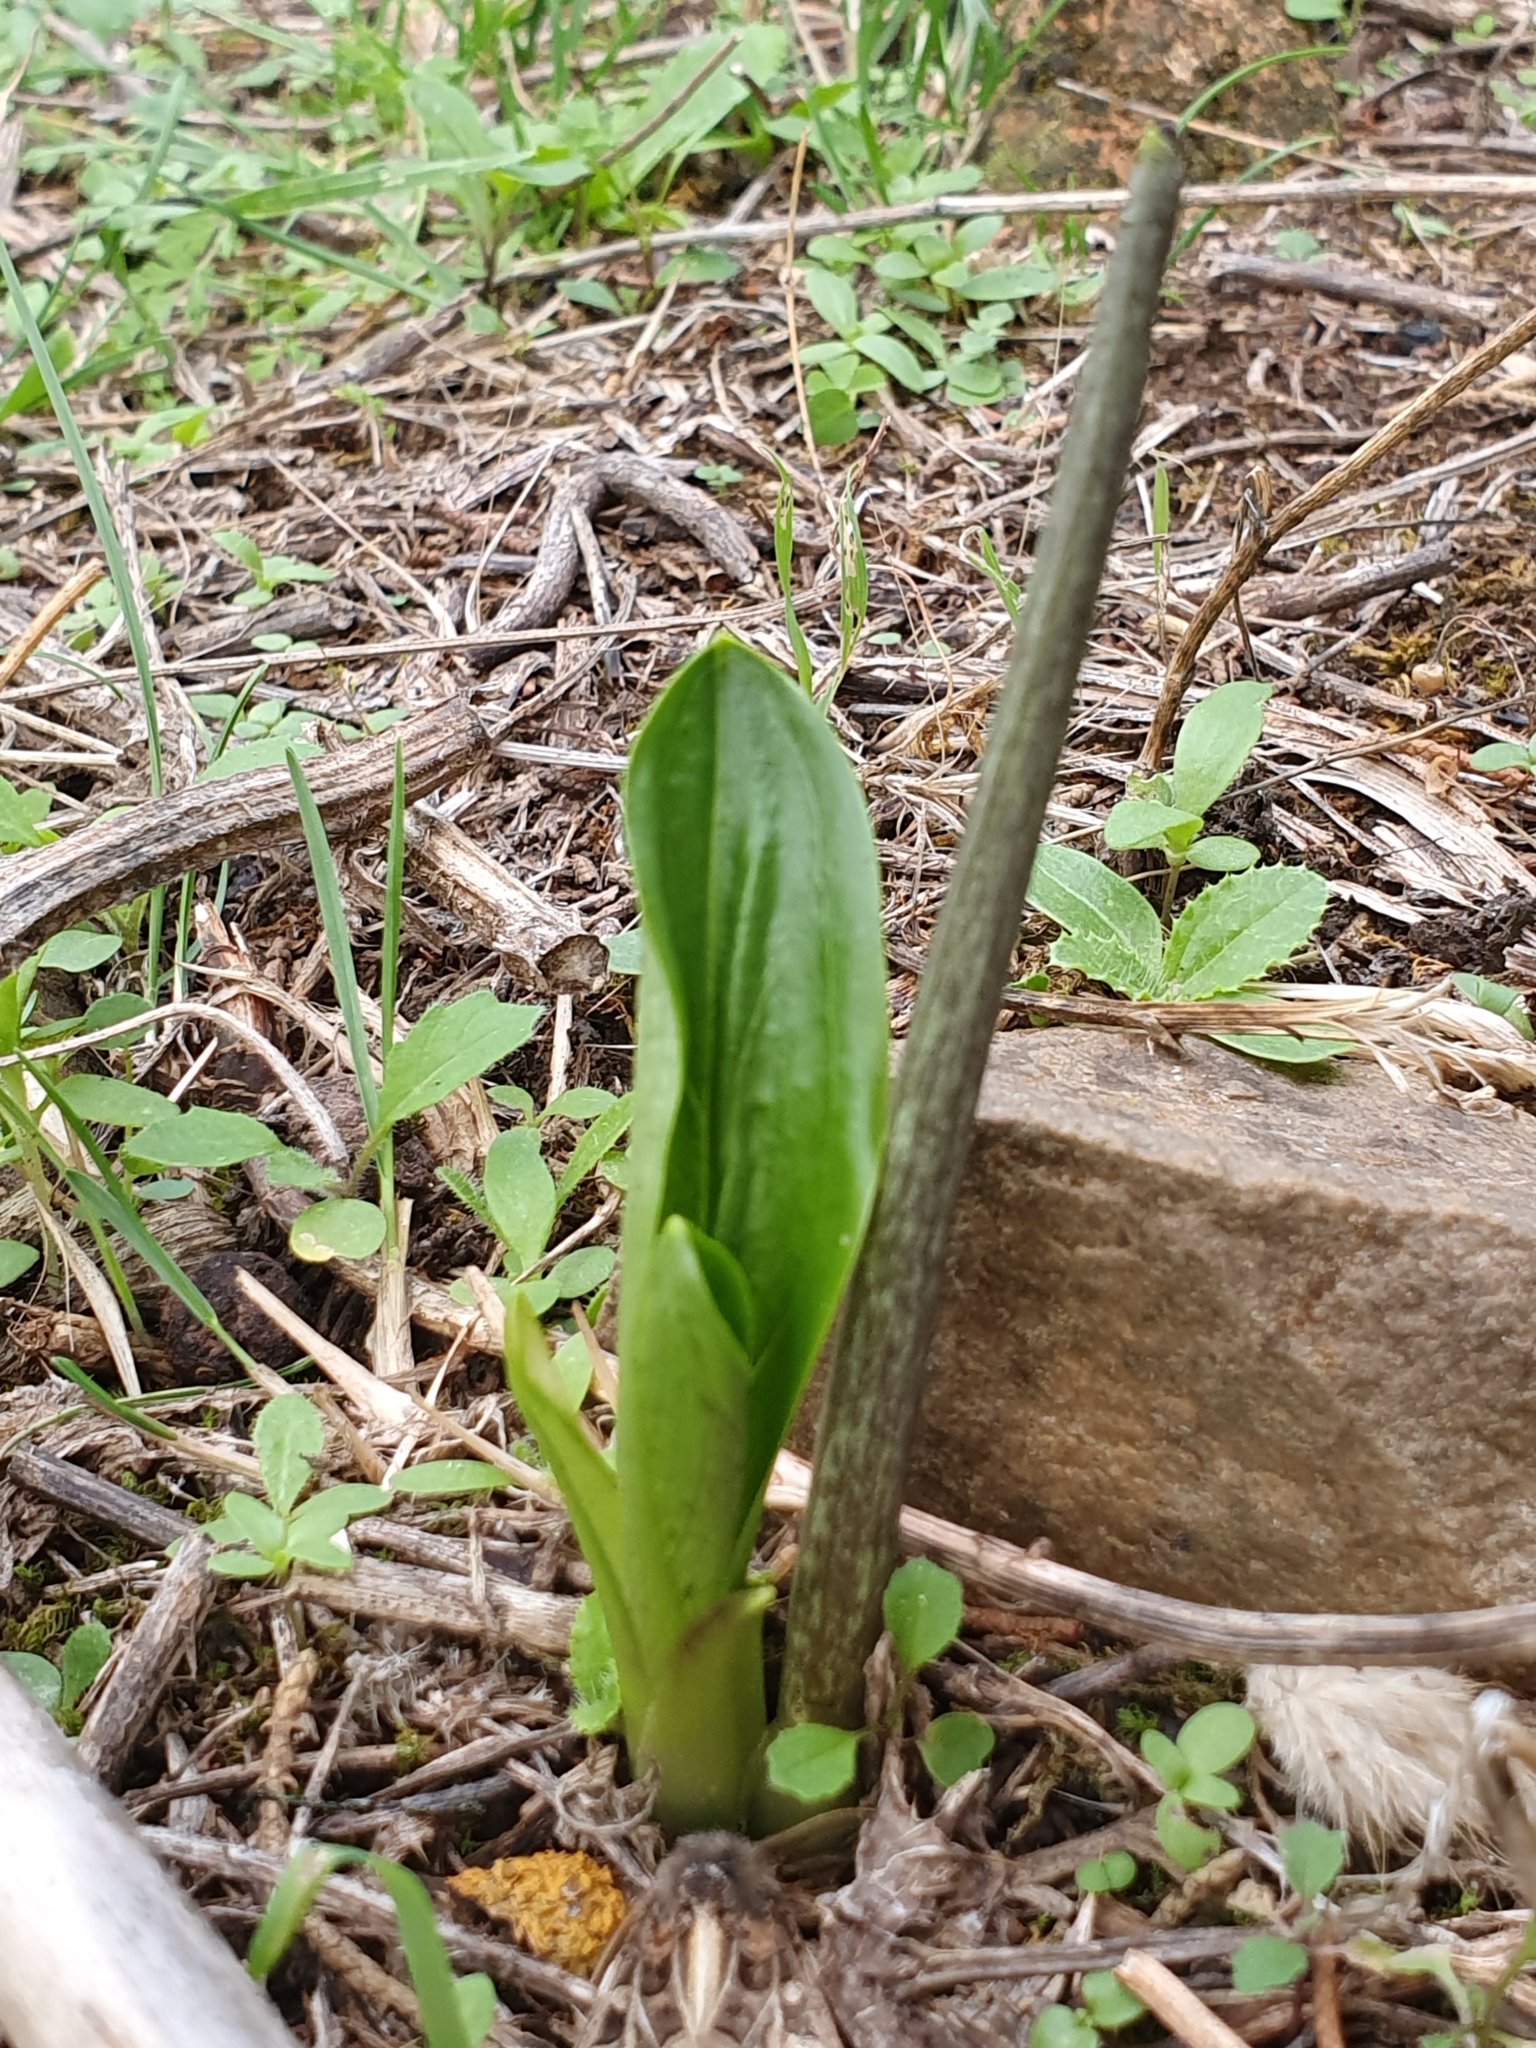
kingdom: Plantae
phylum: Tracheophyta
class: Liliopsida
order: Alismatales
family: Araceae
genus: Biarum
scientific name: Biarum dispar
